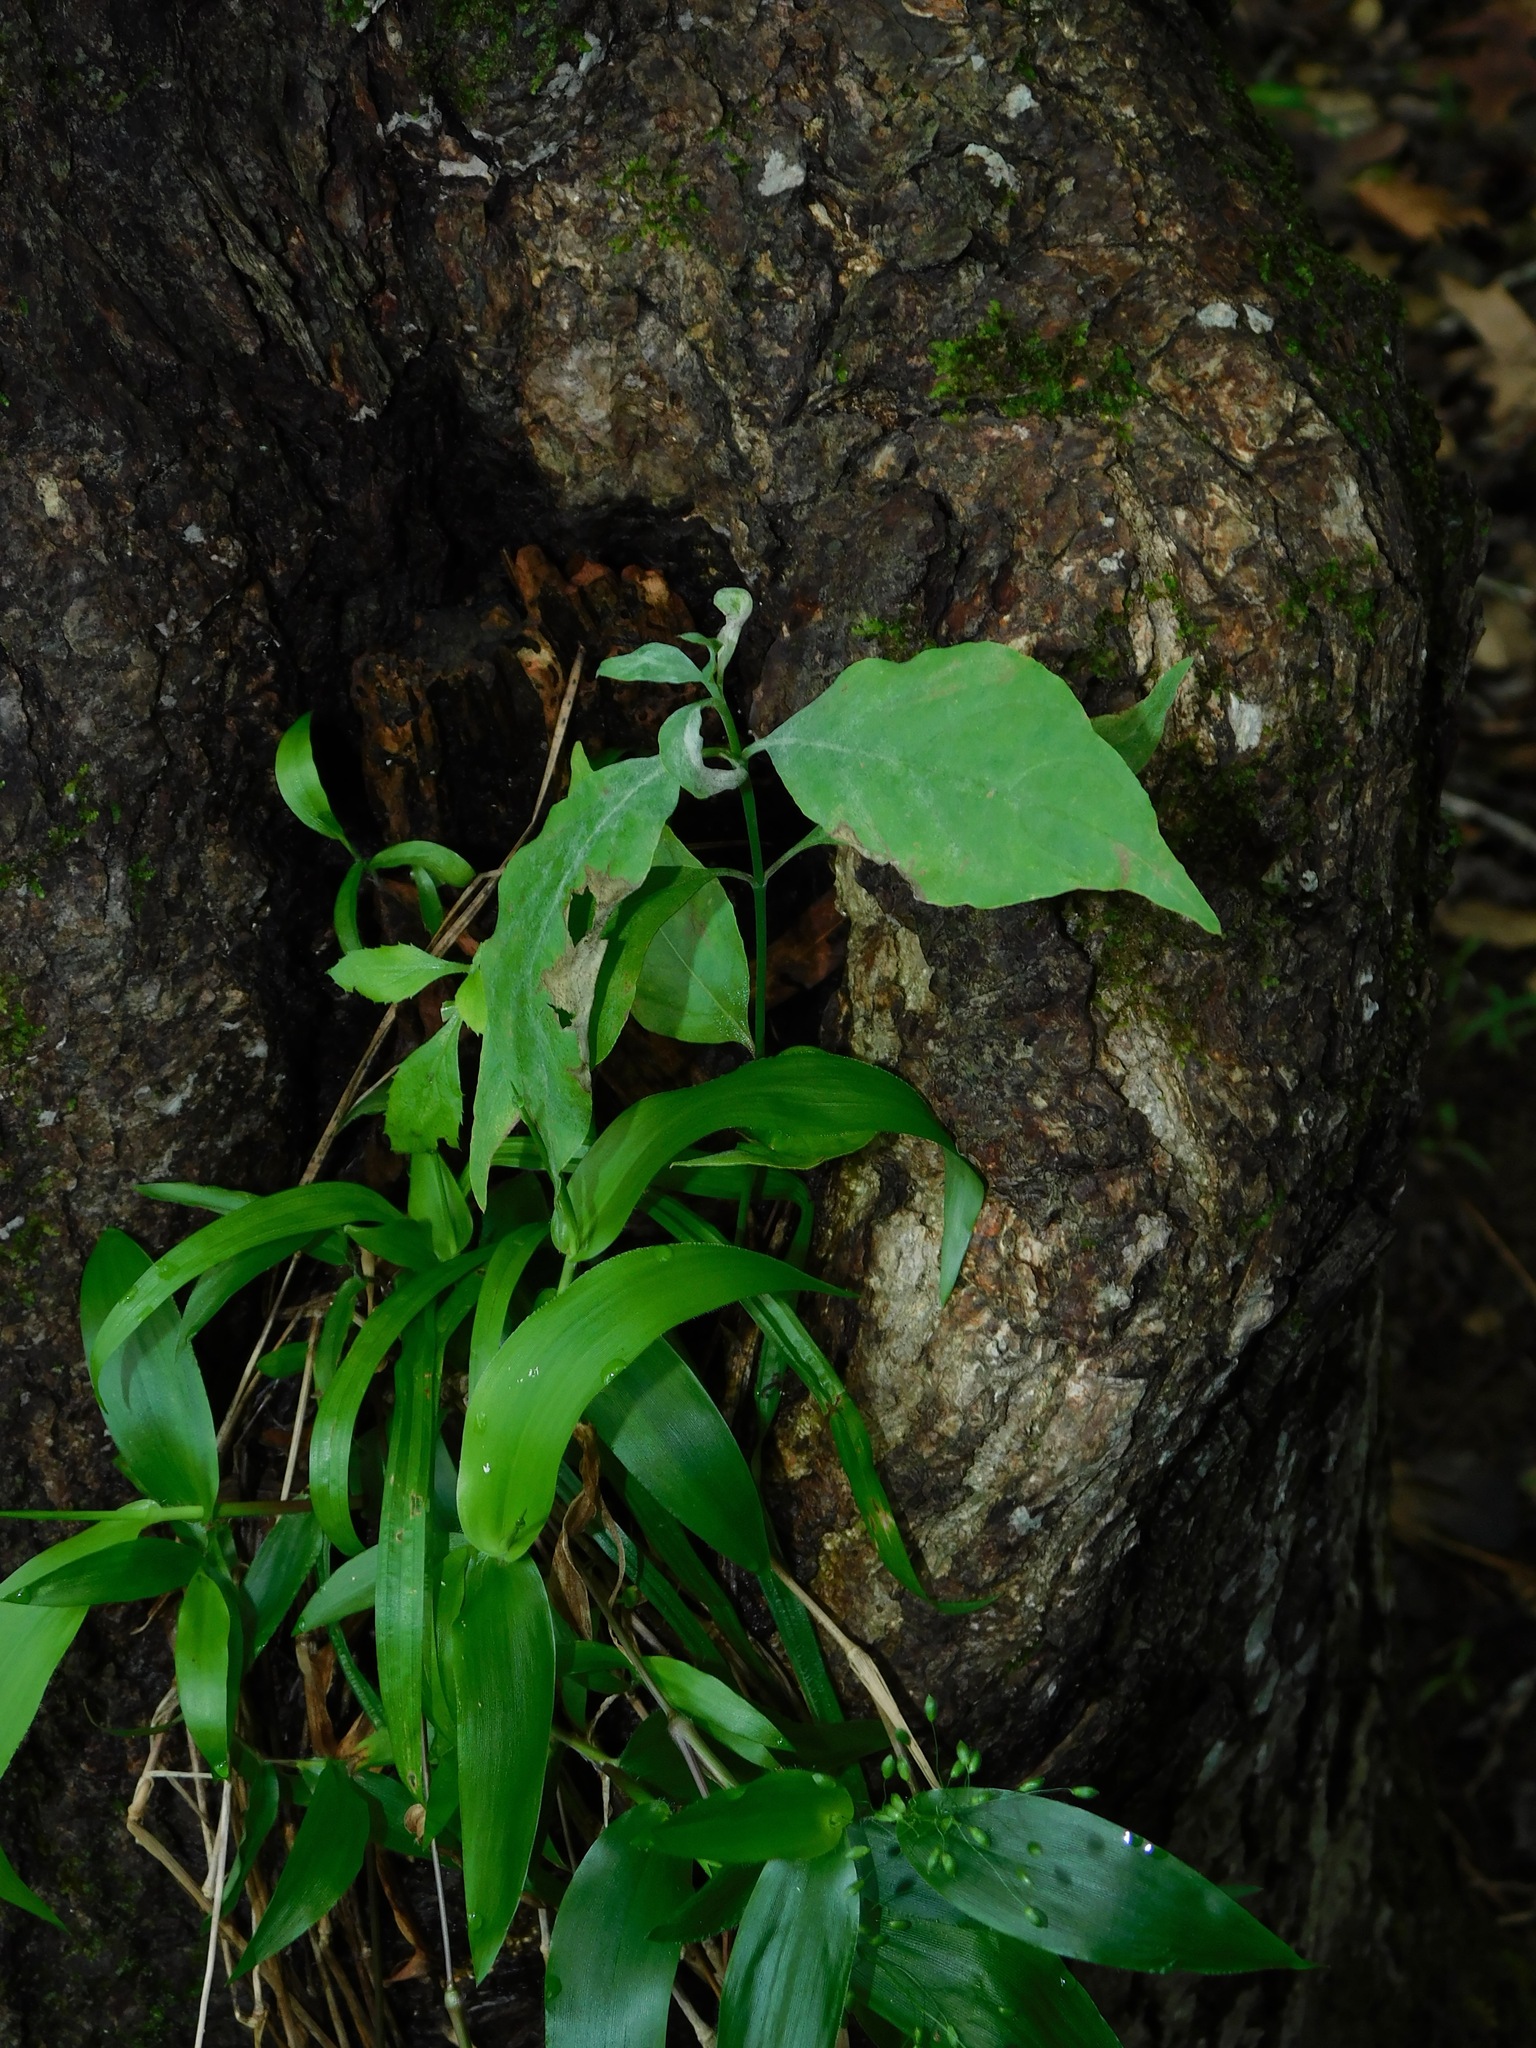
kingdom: Plantae
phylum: Tracheophyta
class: Magnoliopsida
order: Cornales
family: Cornaceae
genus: Cornus
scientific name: Cornus florida
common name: Flowering dogwood
